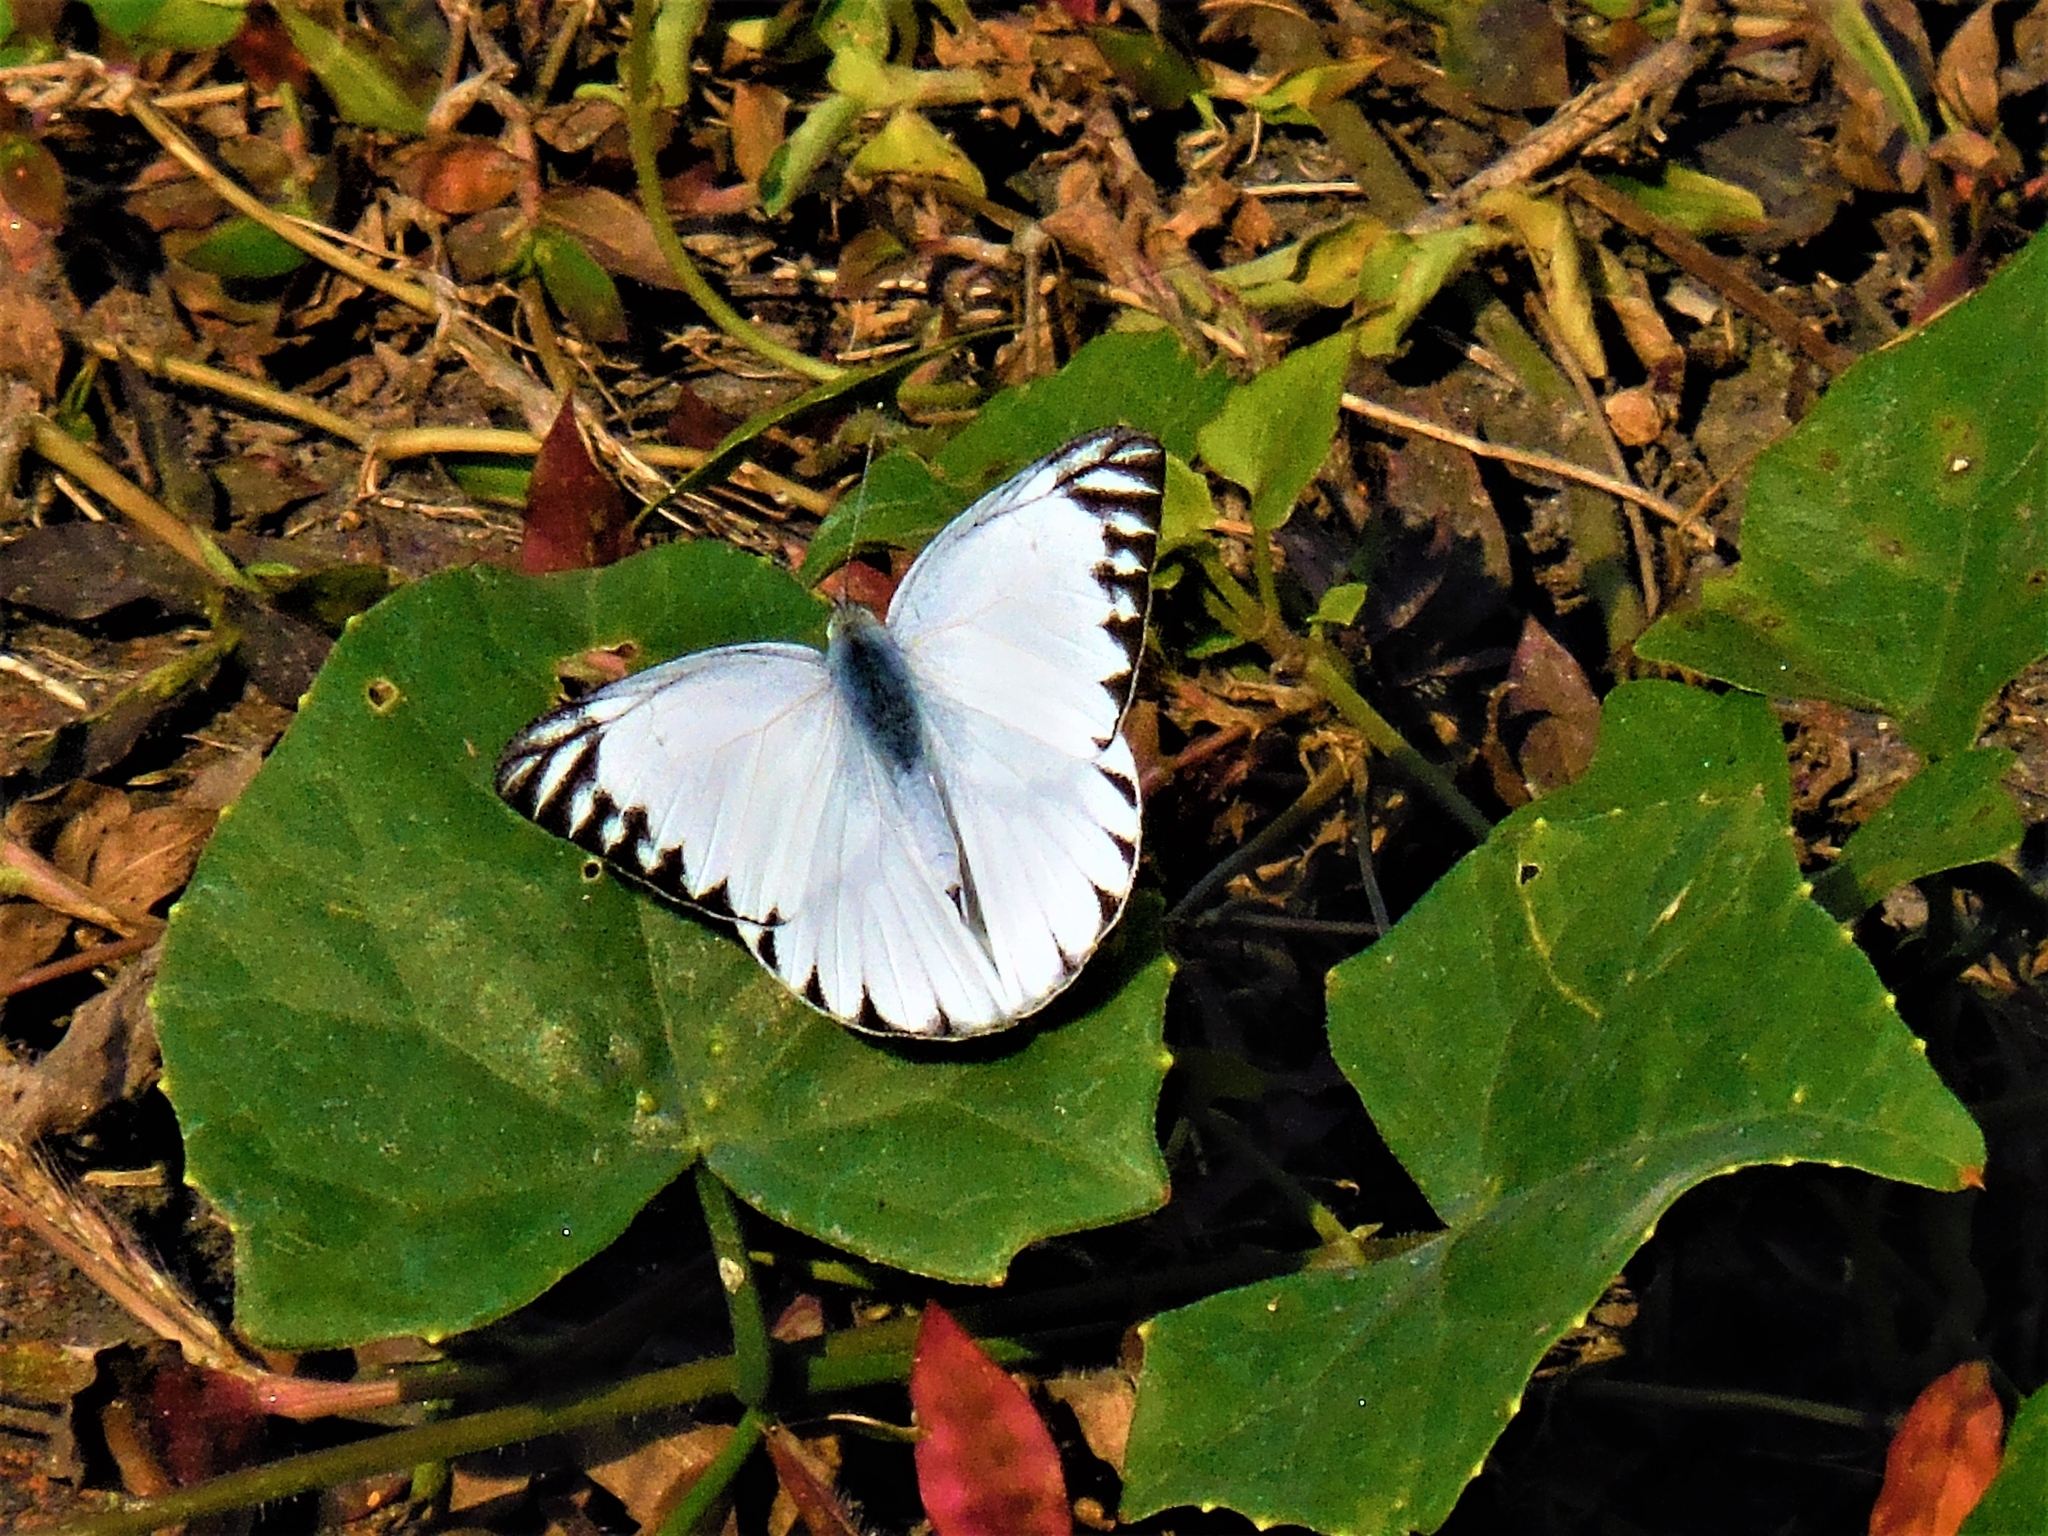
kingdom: Animalia
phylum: Arthropoda
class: Insecta
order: Lepidoptera
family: Pieridae
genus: Appias
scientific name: Appias libythea
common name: Striped albatross
